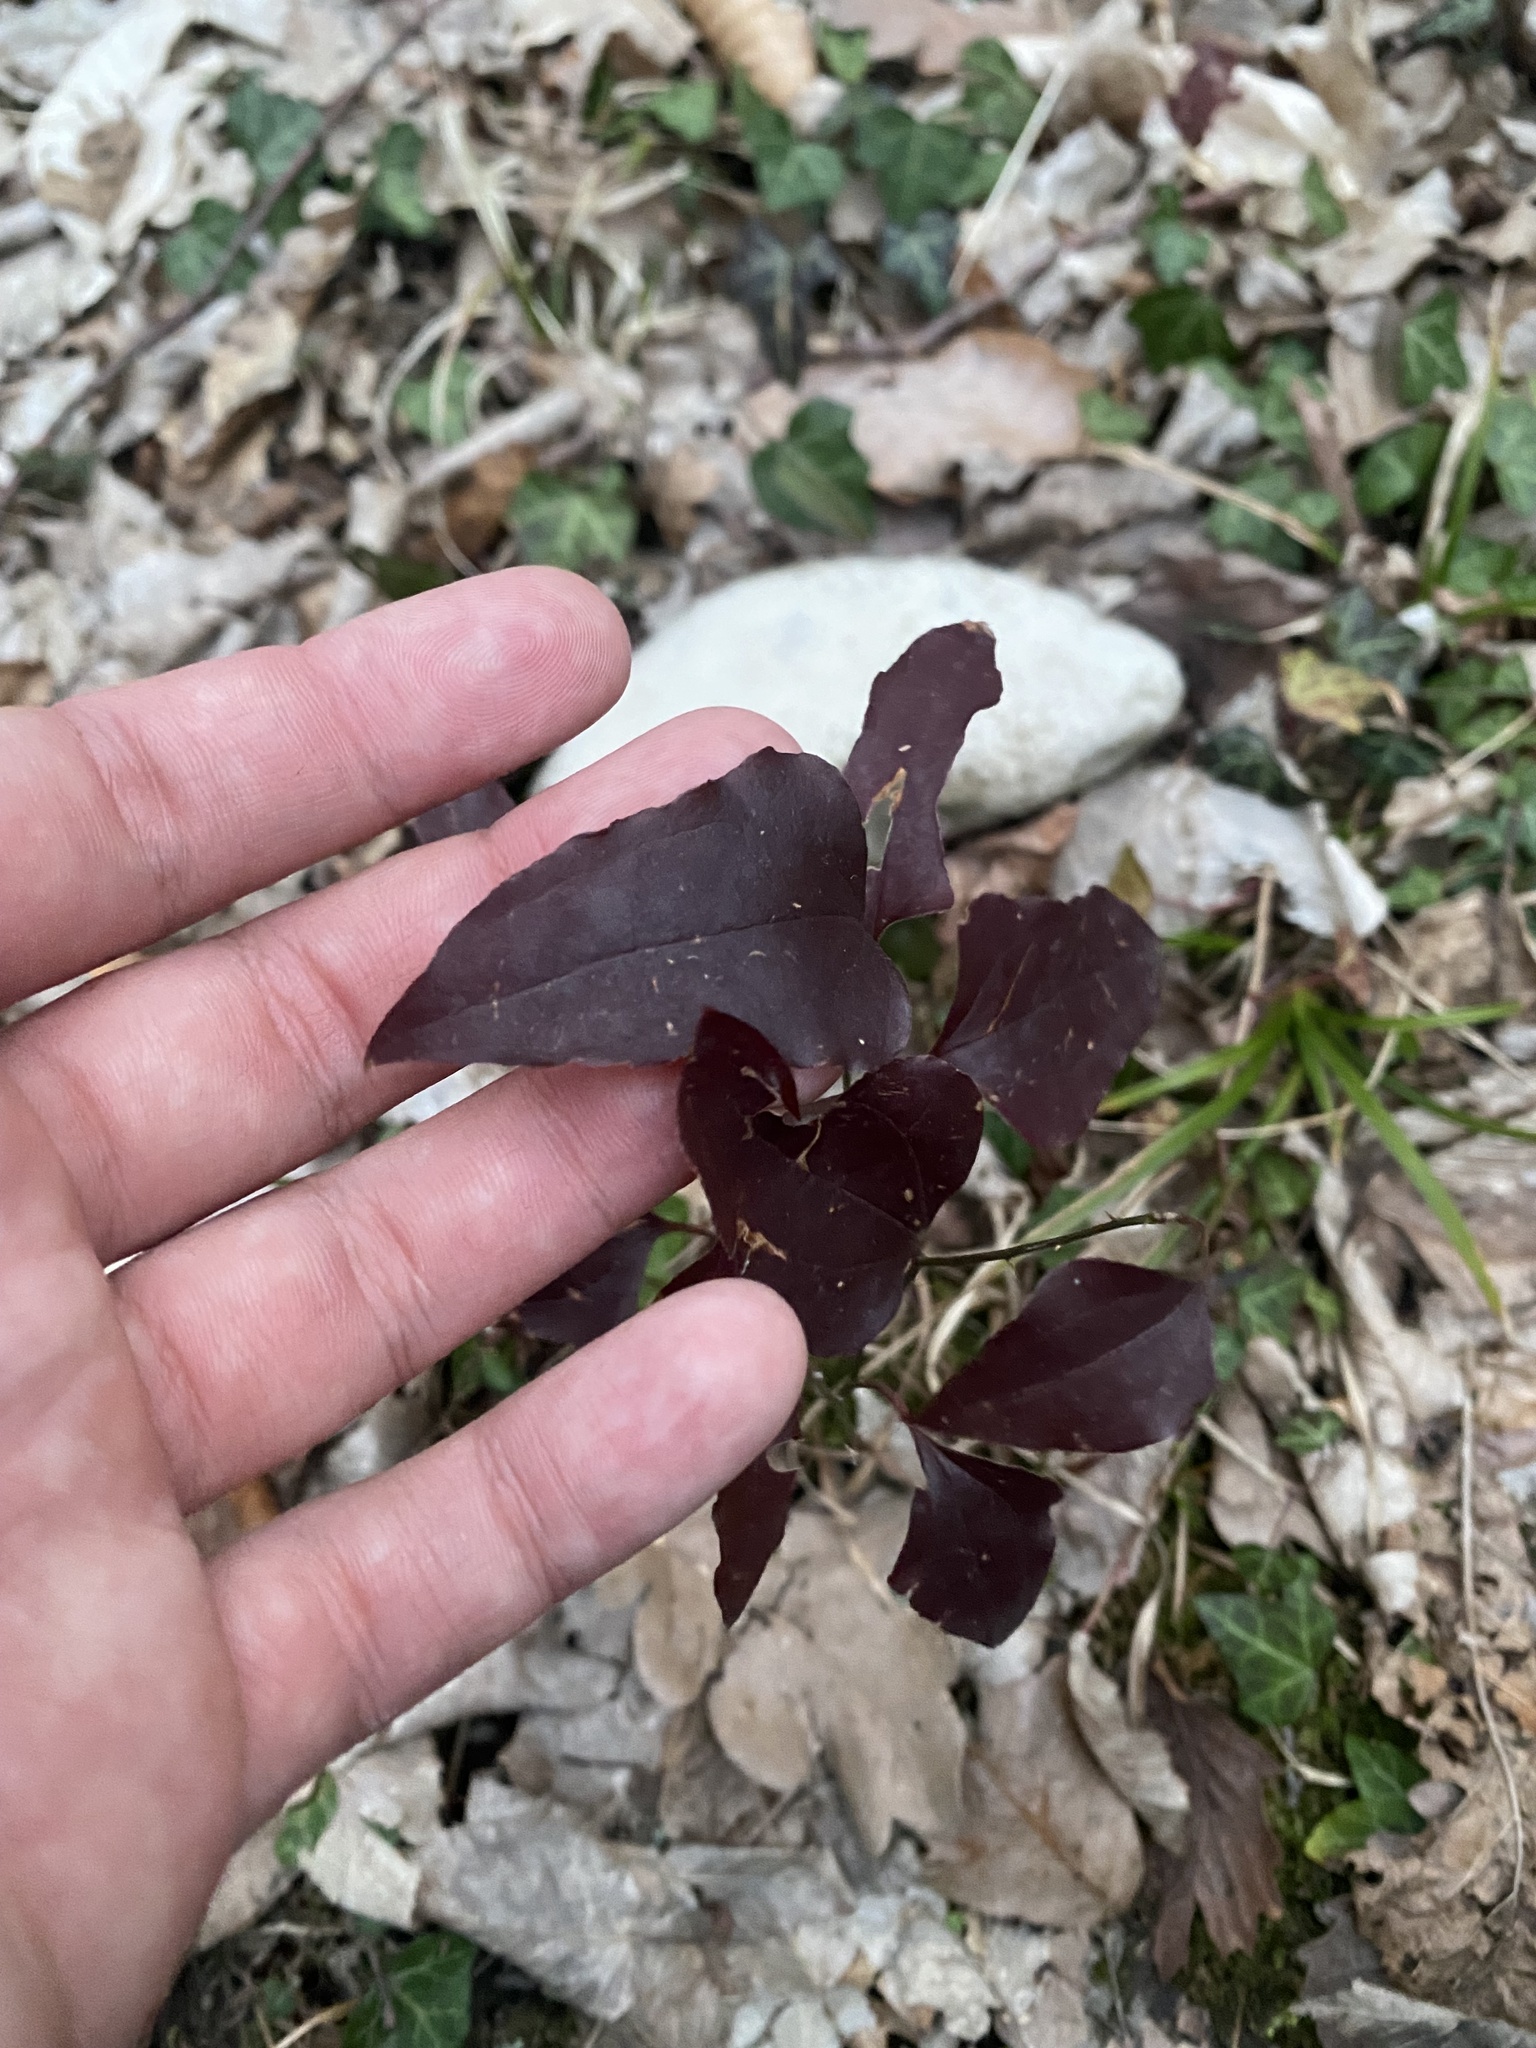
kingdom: Plantae
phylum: Tracheophyta
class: Liliopsida
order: Liliales
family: Smilacaceae
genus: Smilax
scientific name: Smilax excelsa
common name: Larger smilax
